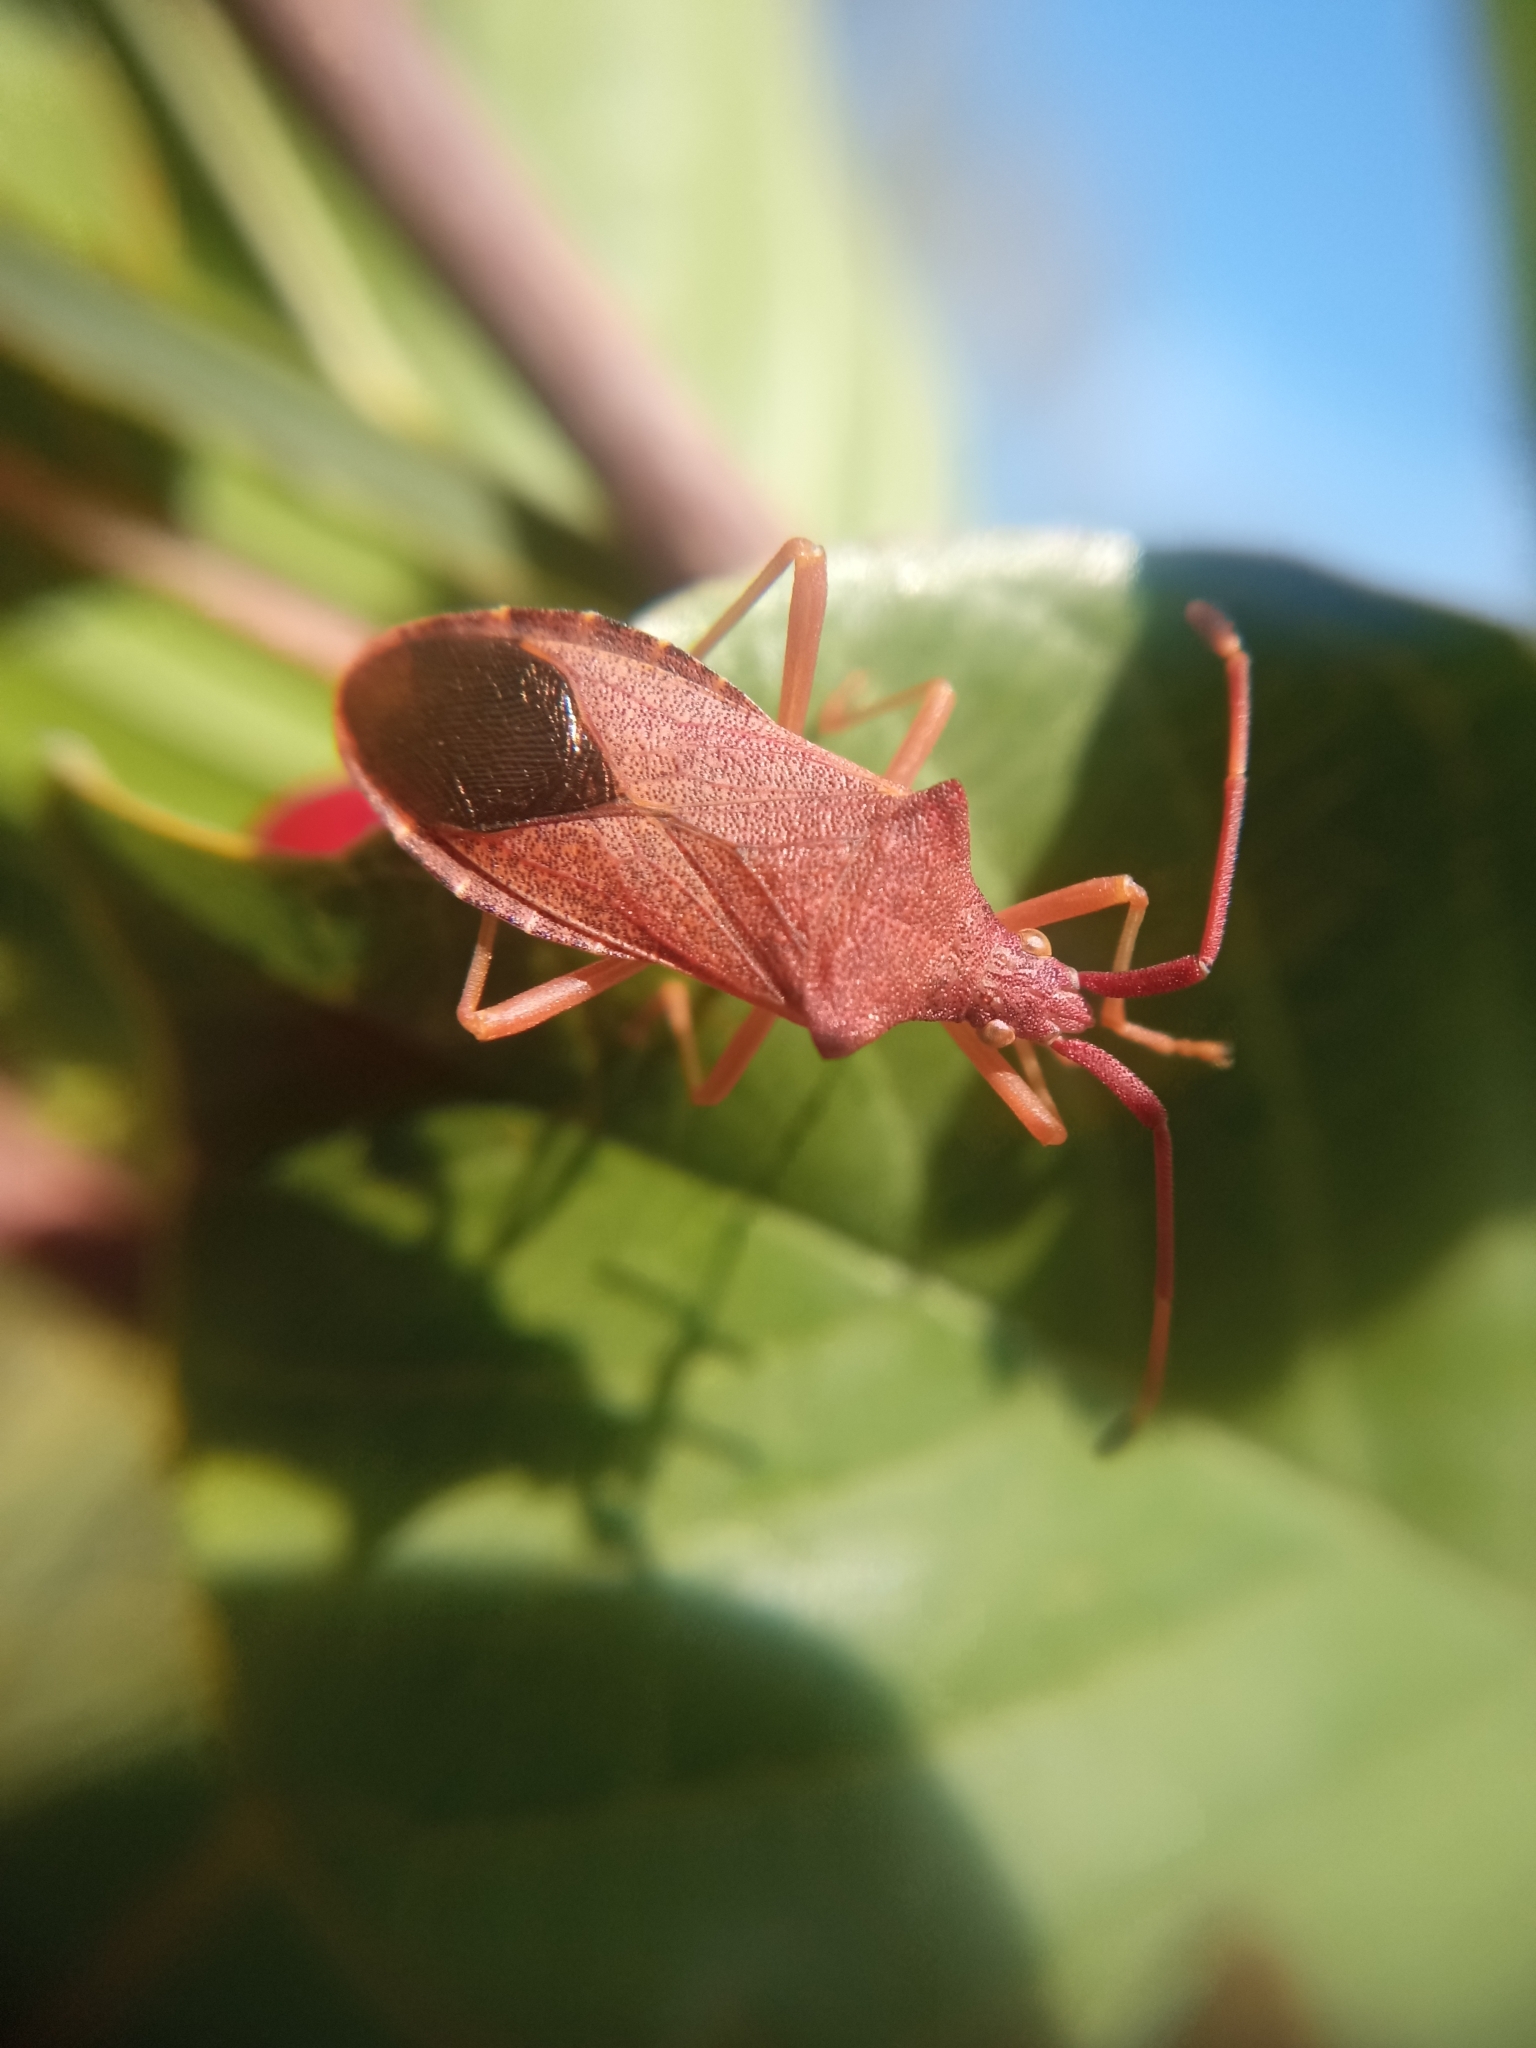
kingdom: Animalia
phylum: Arthropoda
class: Insecta
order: Hemiptera
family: Coreidae
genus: Gonocerus
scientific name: Gonocerus acuteangulatus
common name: Box bug
